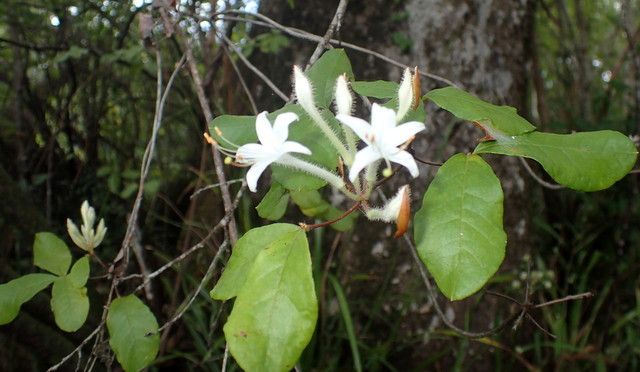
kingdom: Plantae
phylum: Tracheophyta
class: Magnoliopsida
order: Ericales
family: Ericaceae
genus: Rhododendron
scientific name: Rhododendron serrulatum
